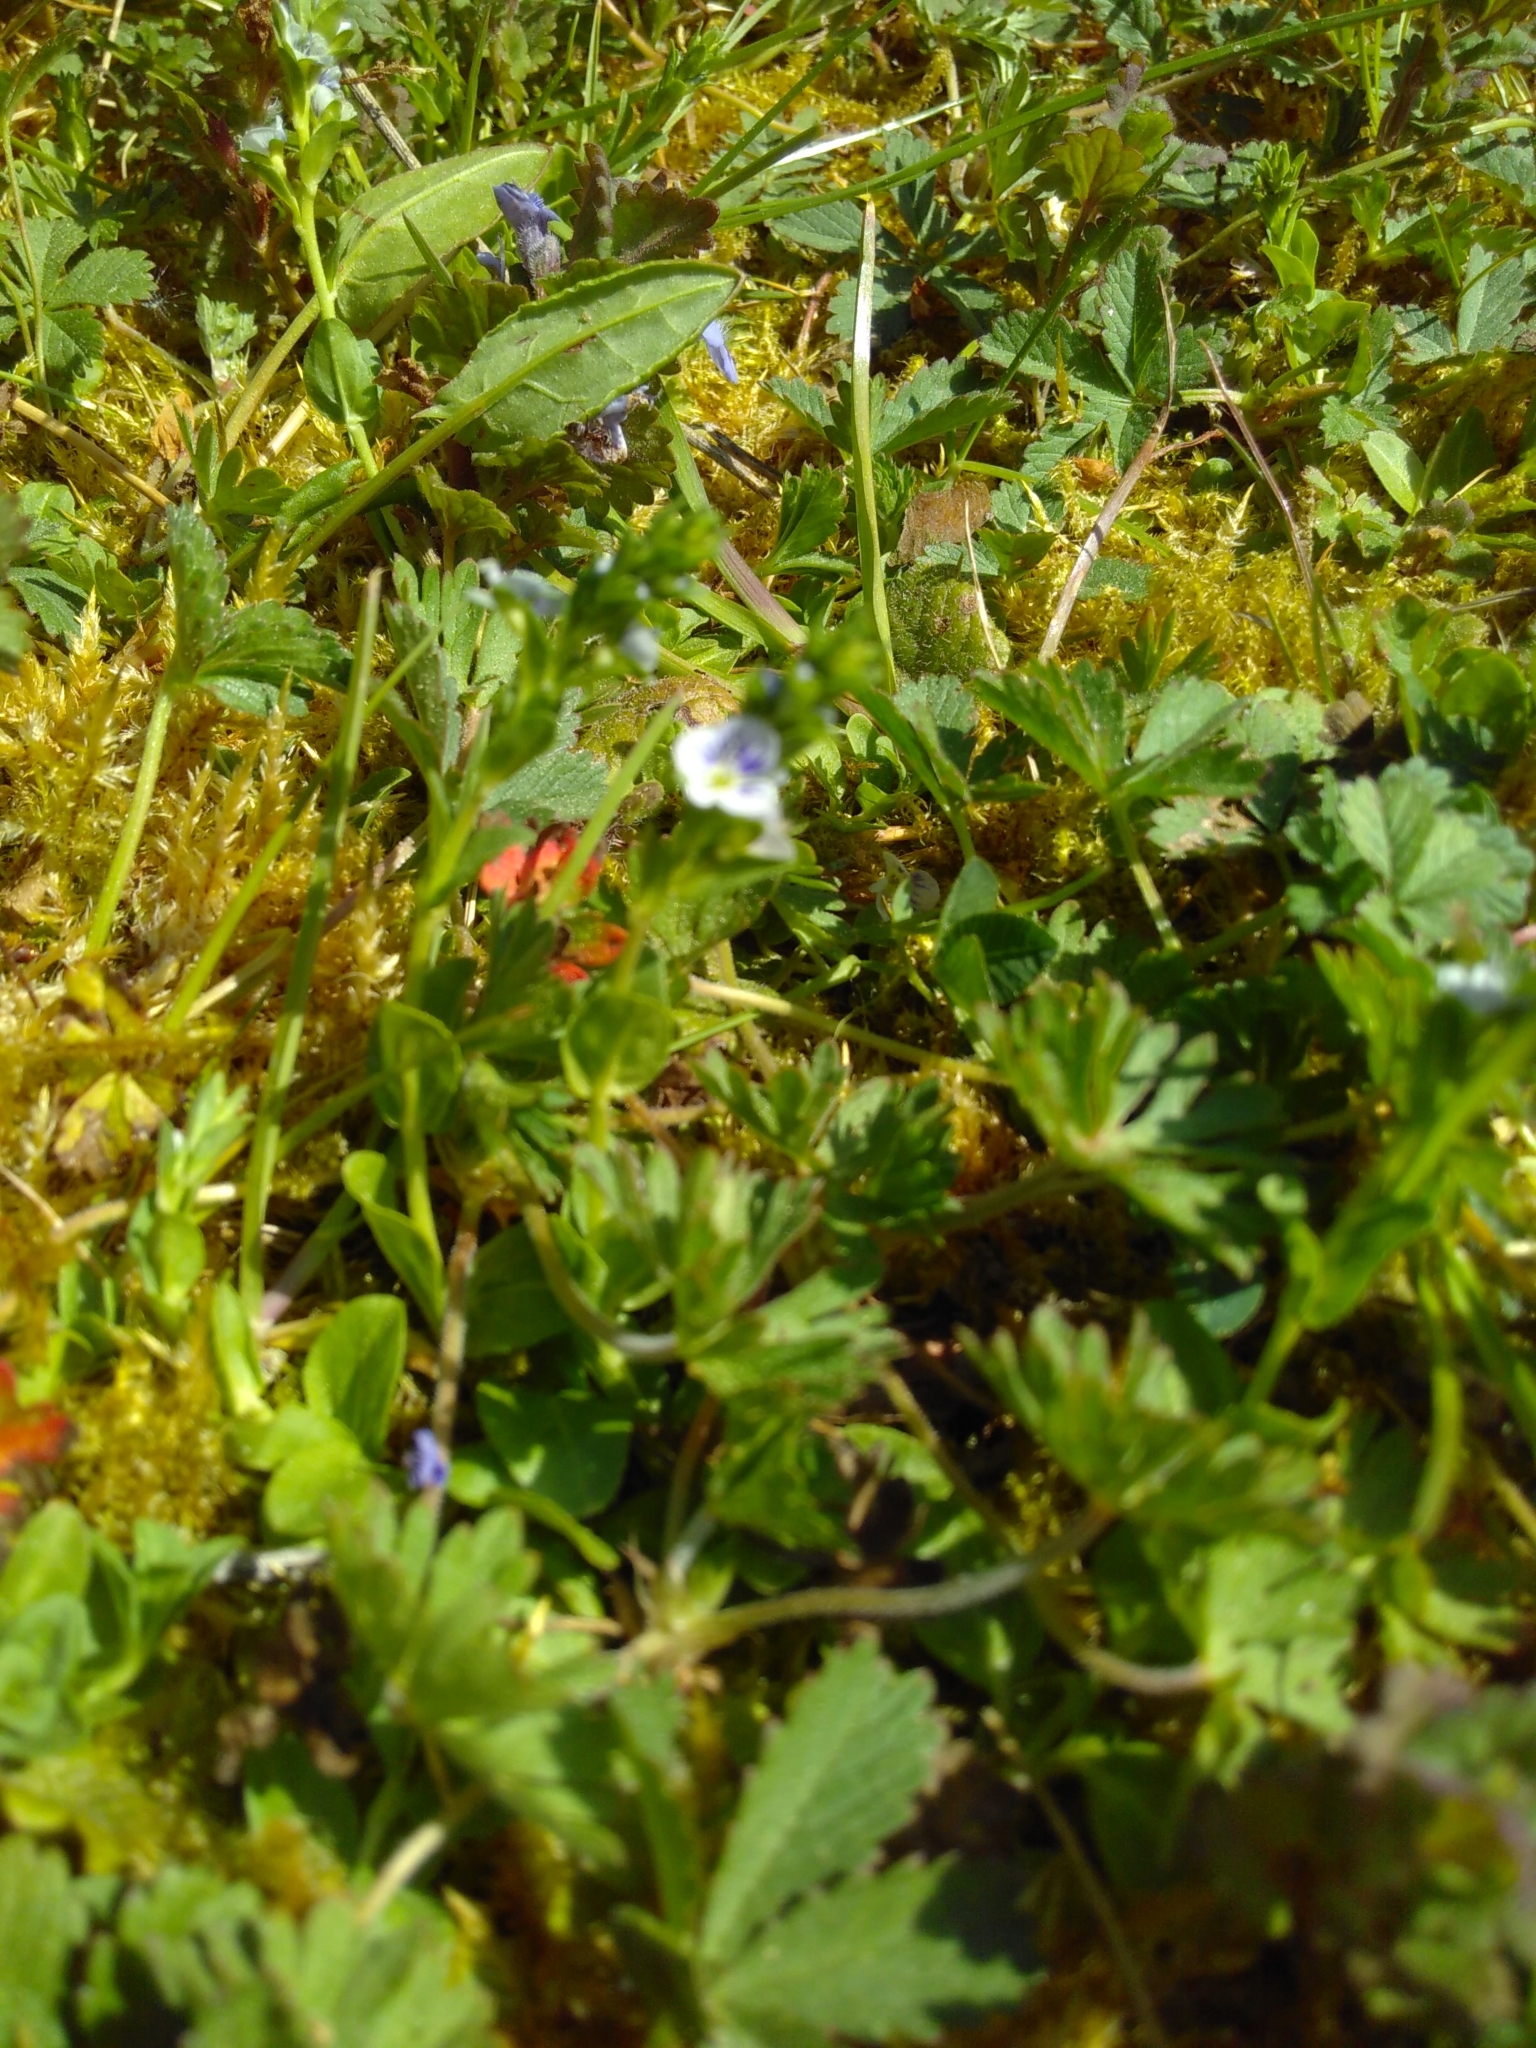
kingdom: Plantae
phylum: Tracheophyta
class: Magnoliopsida
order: Lamiales
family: Plantaginaceae
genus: Veronica
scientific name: Veronica serpyllifolia
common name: Thyme-leaved speedwell
